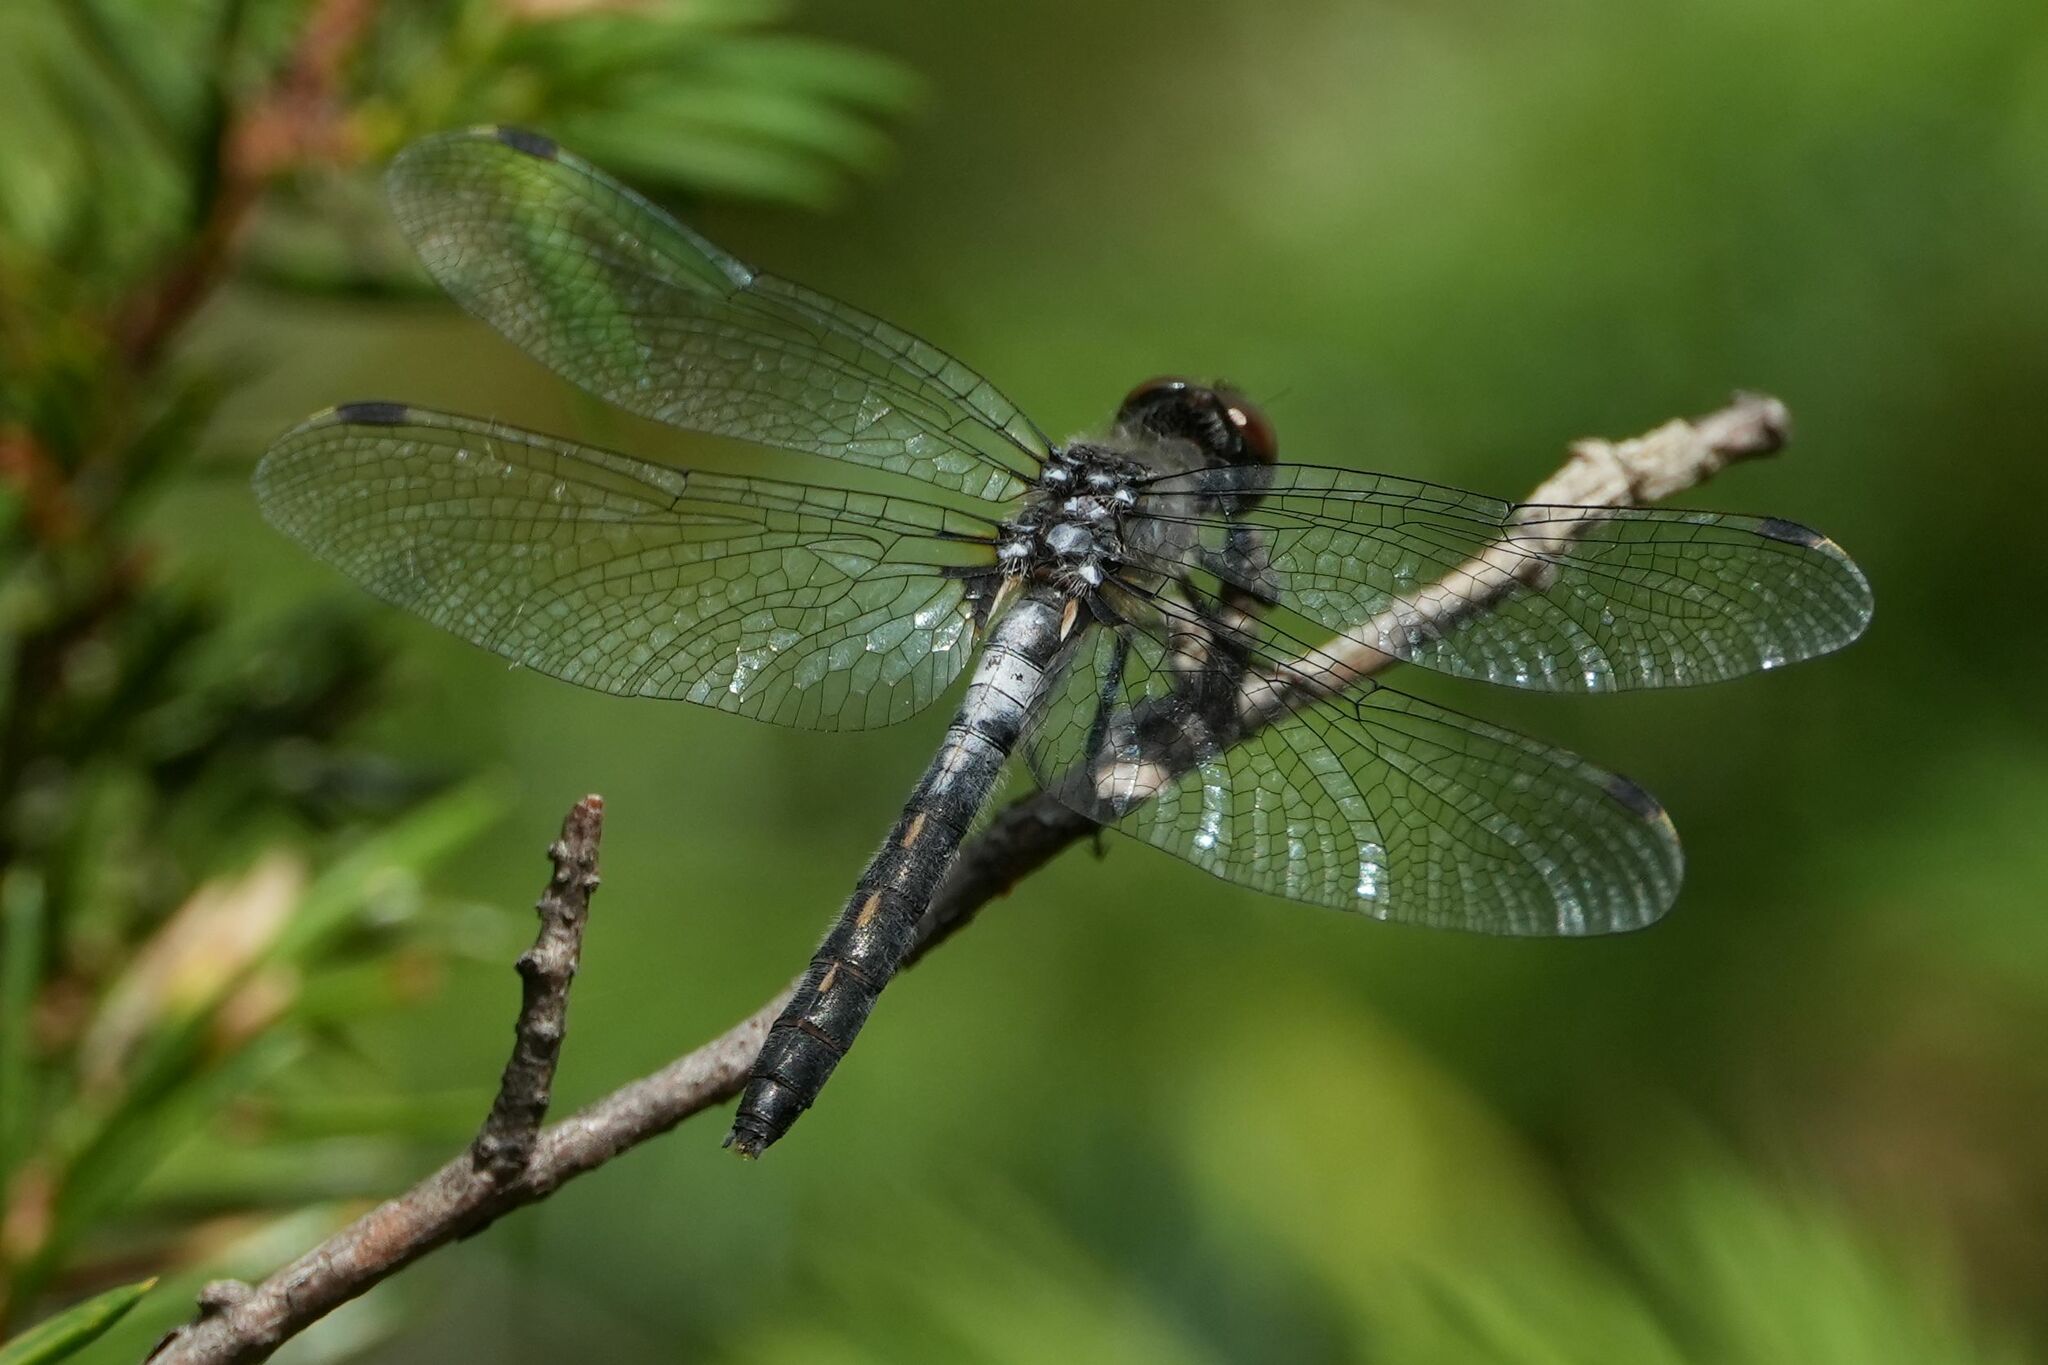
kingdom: Animalia
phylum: Arthropoda
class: Insecta
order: Odonata
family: Libellulidae
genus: Leucorrhinia
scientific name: Leucorrhinia frigida
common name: Frosted whiteface
